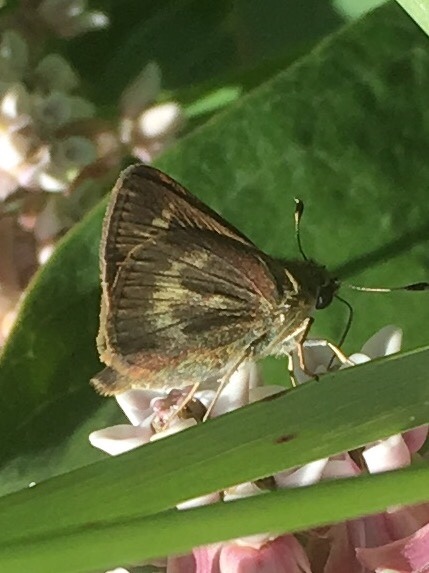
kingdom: Animalia
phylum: Arthropoda
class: Insecta
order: Lepidoptera
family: Hesperiidae
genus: Polites
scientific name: Polites egeremet
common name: Northern broken-dash
